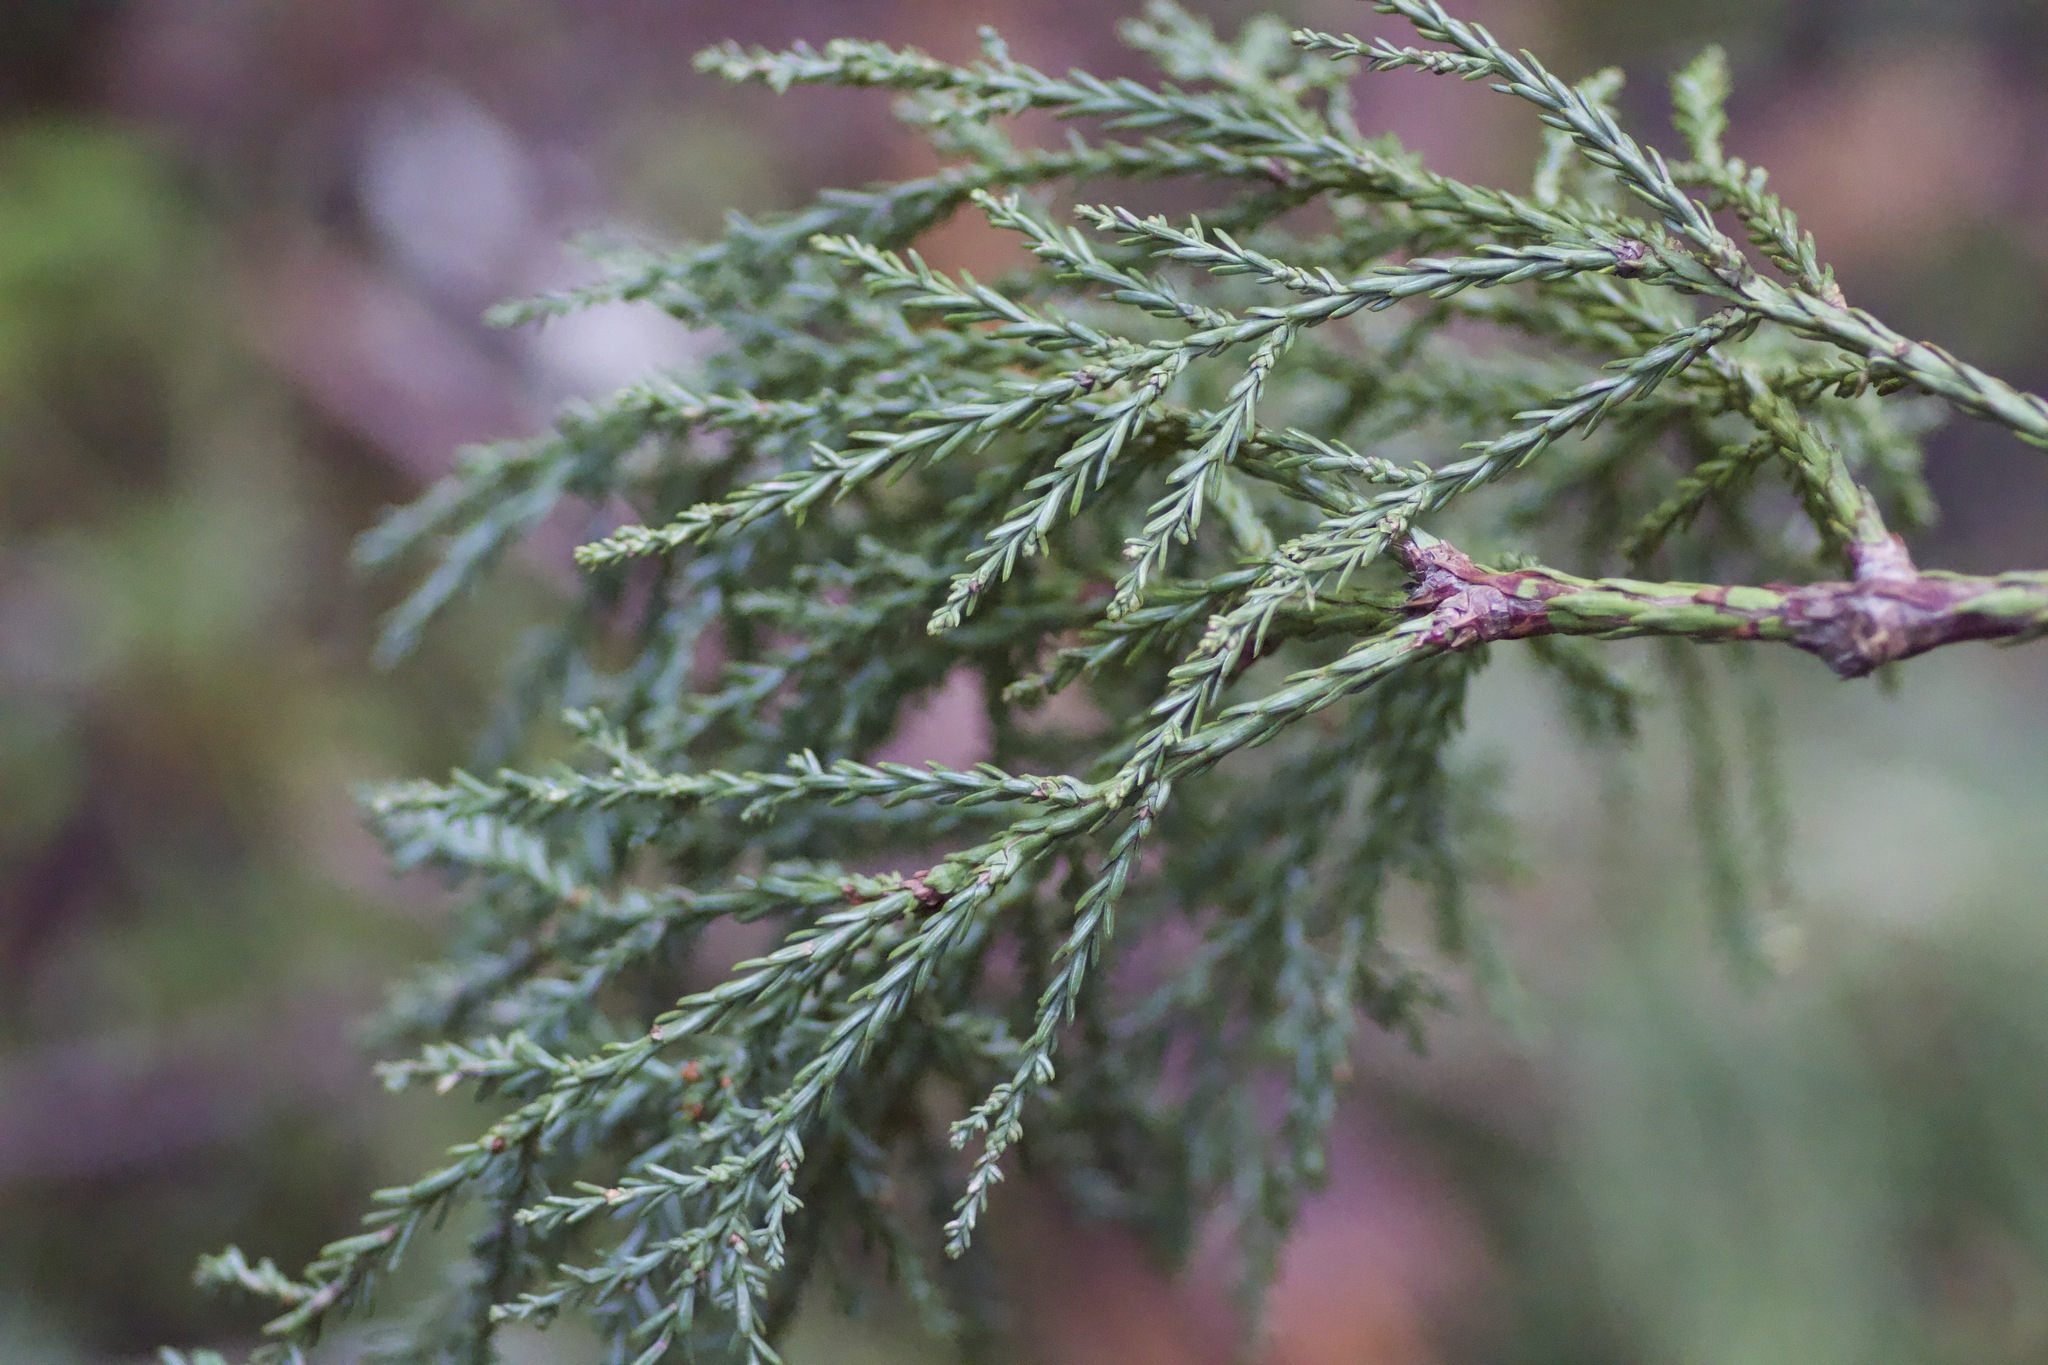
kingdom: Plantae
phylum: Tracheophyta
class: Pinopsida
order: Pinales
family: Cupressaceae
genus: Sequoia
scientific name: Sequoia sempervirens
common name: Coast redwood
